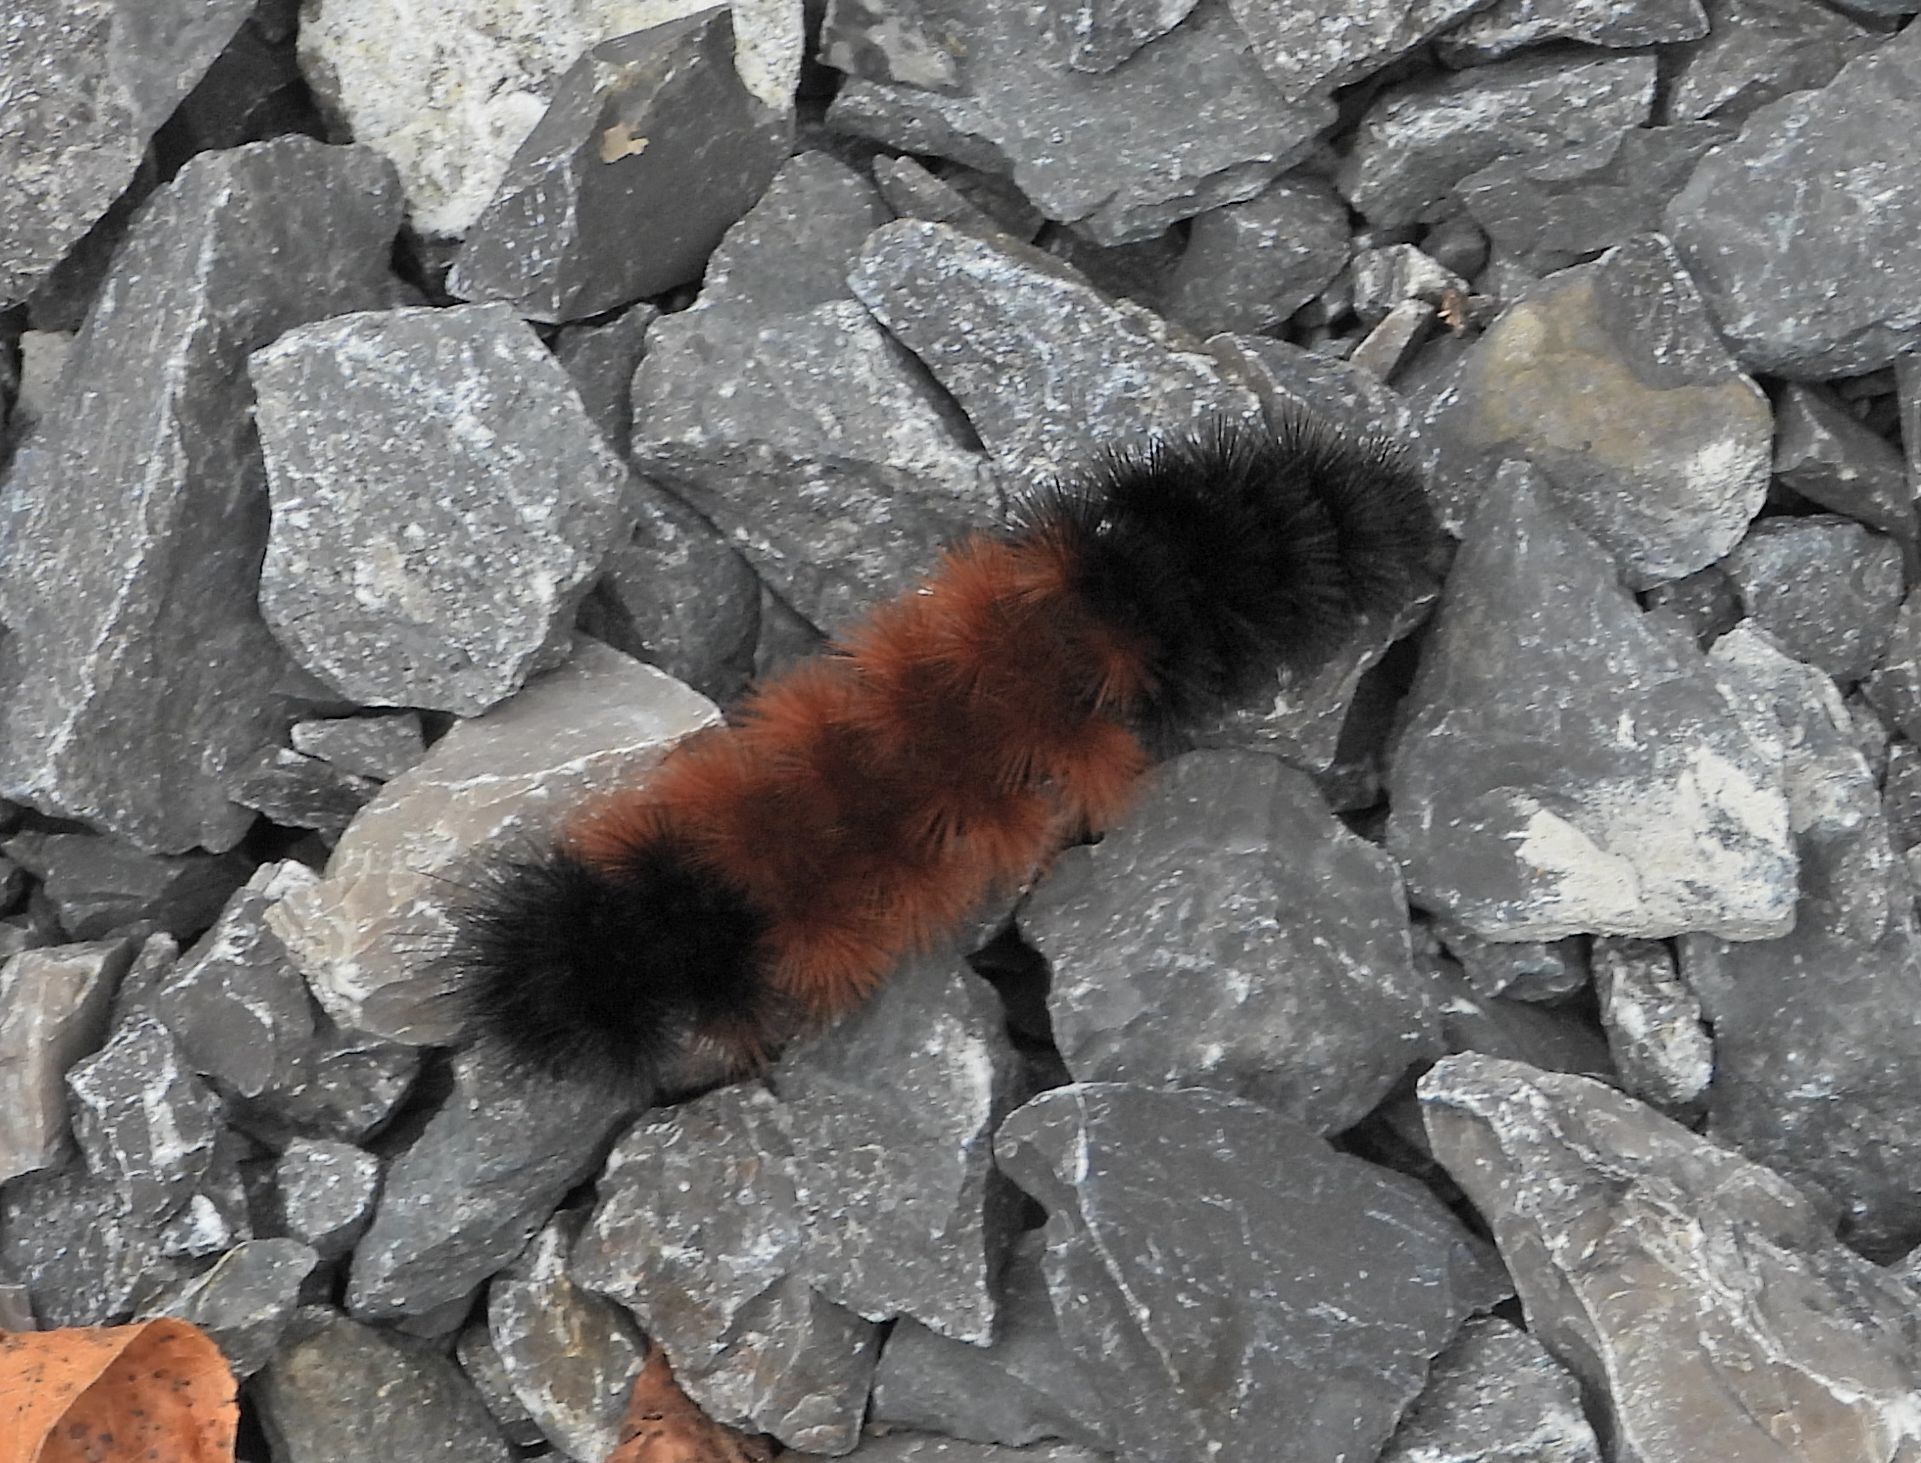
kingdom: Animalia
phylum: Arthropoda
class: Insecta
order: Lepidoptera
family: Erebidae
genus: Pyrrharctia
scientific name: Pyrrharctia isabella
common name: Isabella tiger moth
